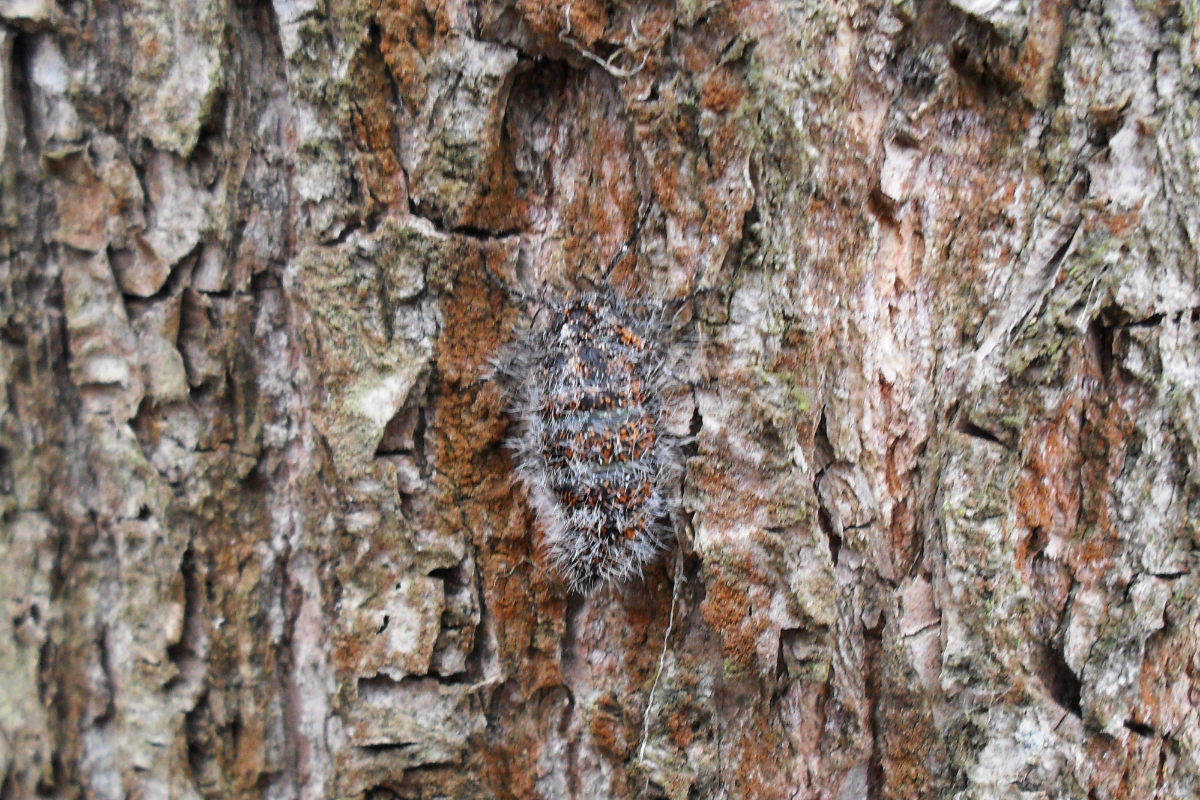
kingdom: Animalia
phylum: Arthropoda
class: Insecta
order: Lepidoptera
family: Geometridae
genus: Lycia
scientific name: Lycia pomonaria
